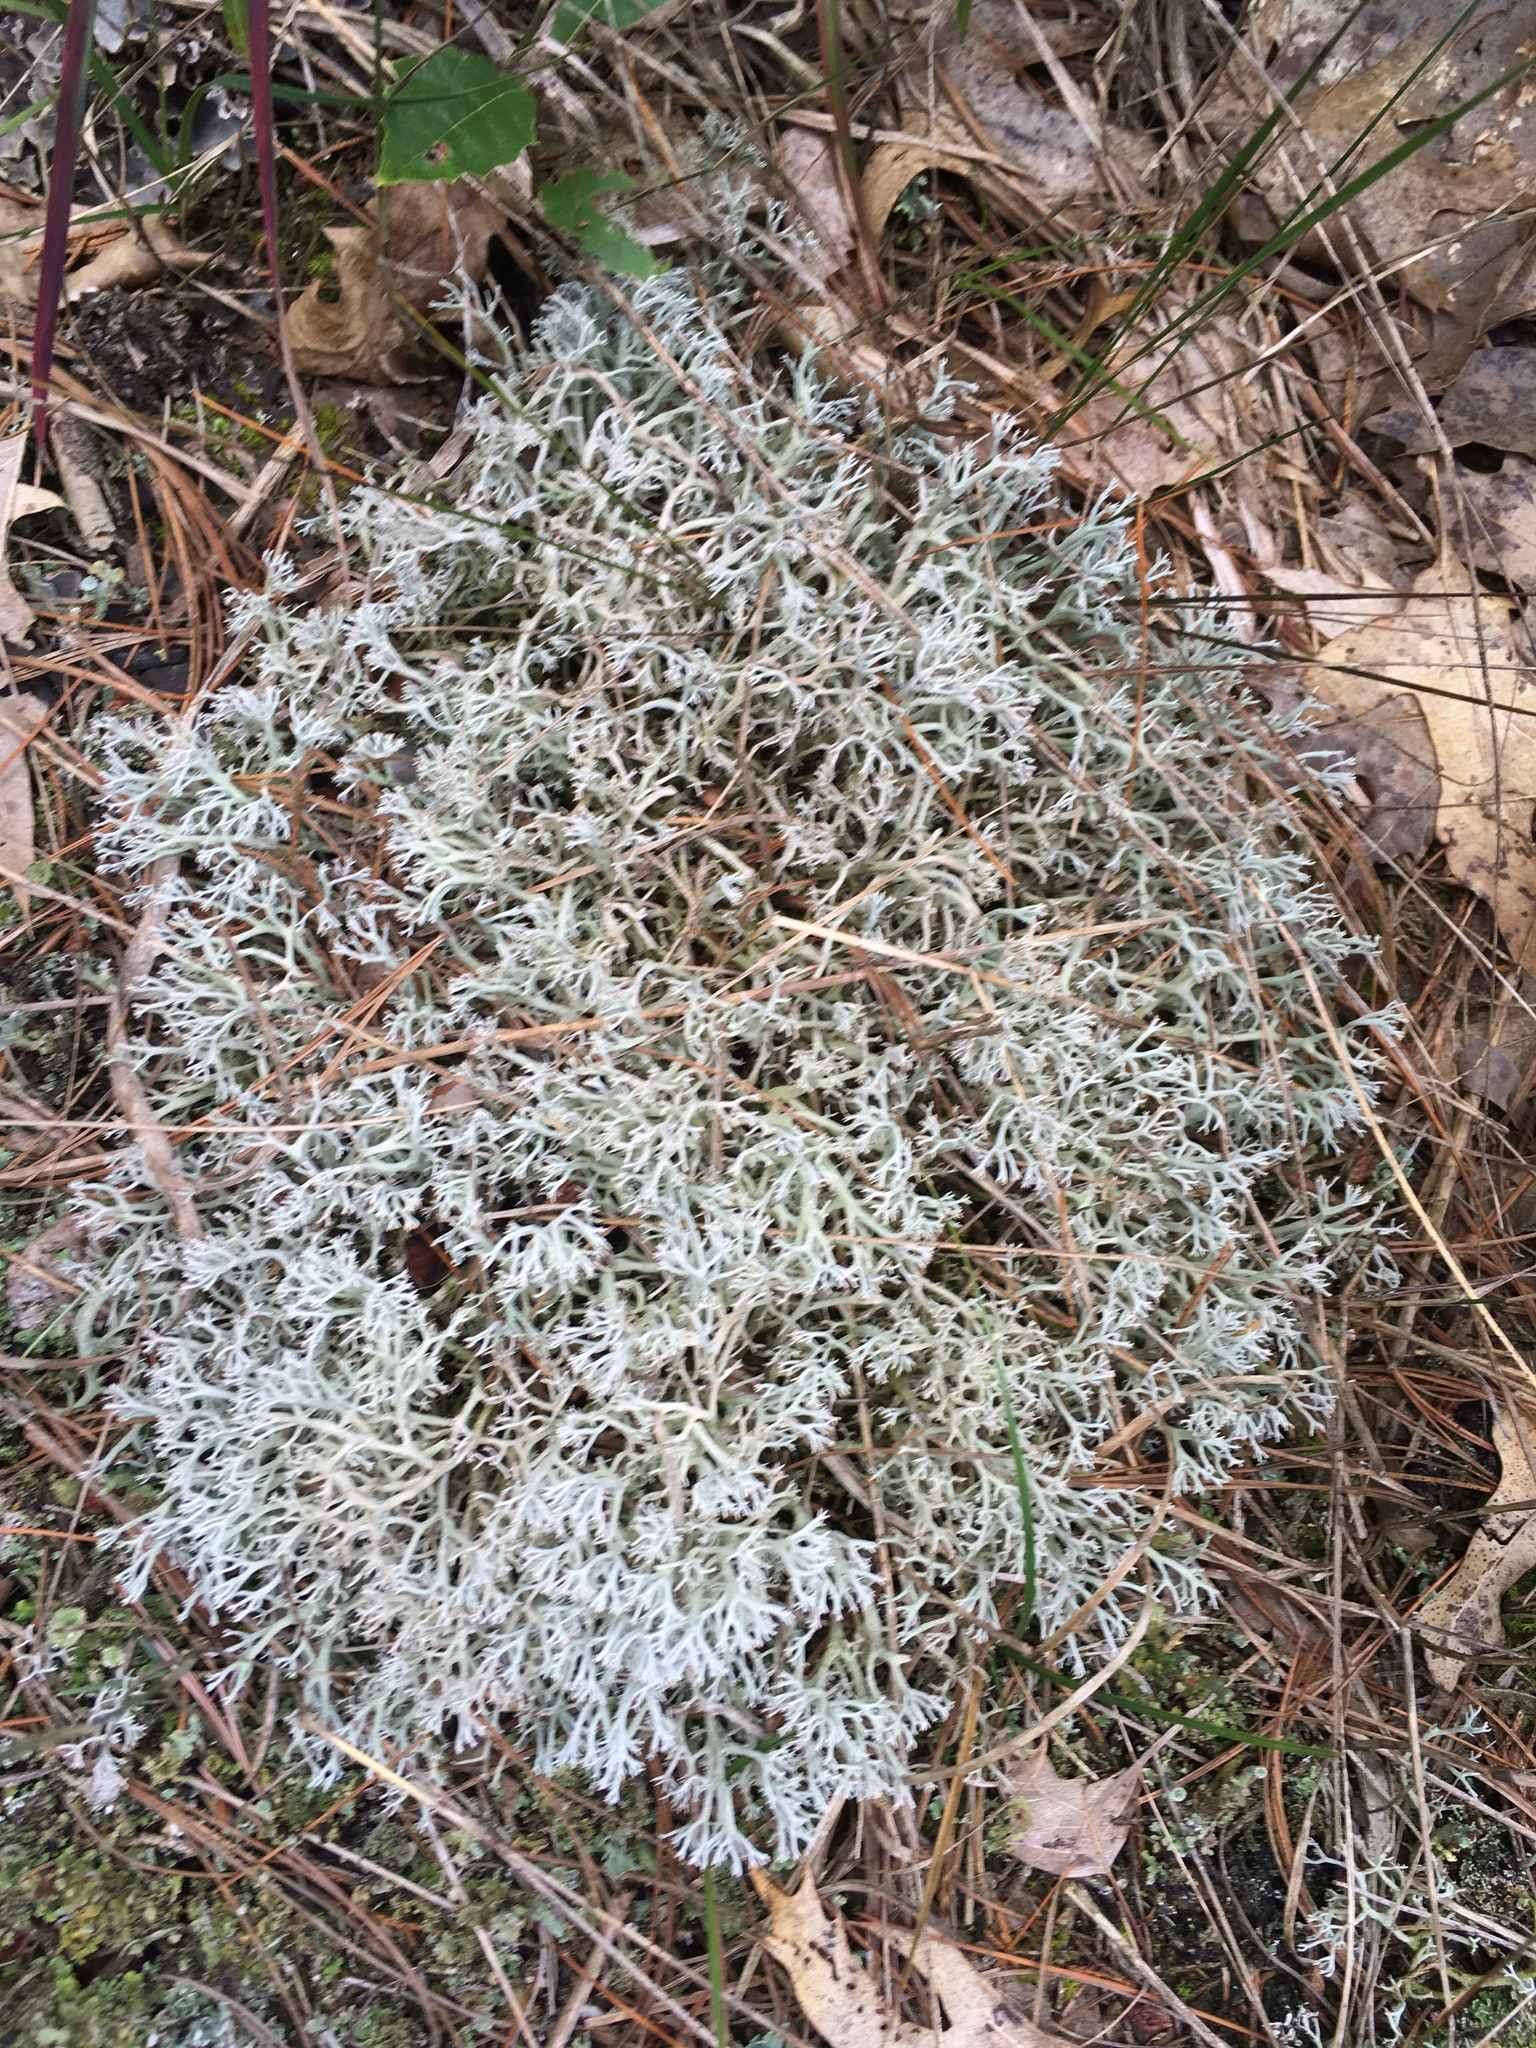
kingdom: Fungi
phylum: Ascomycota
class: Lecanoromycetes
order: Lecanorales
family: Cladoniaceae
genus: Cladonia
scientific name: Cladonia rangiferina
